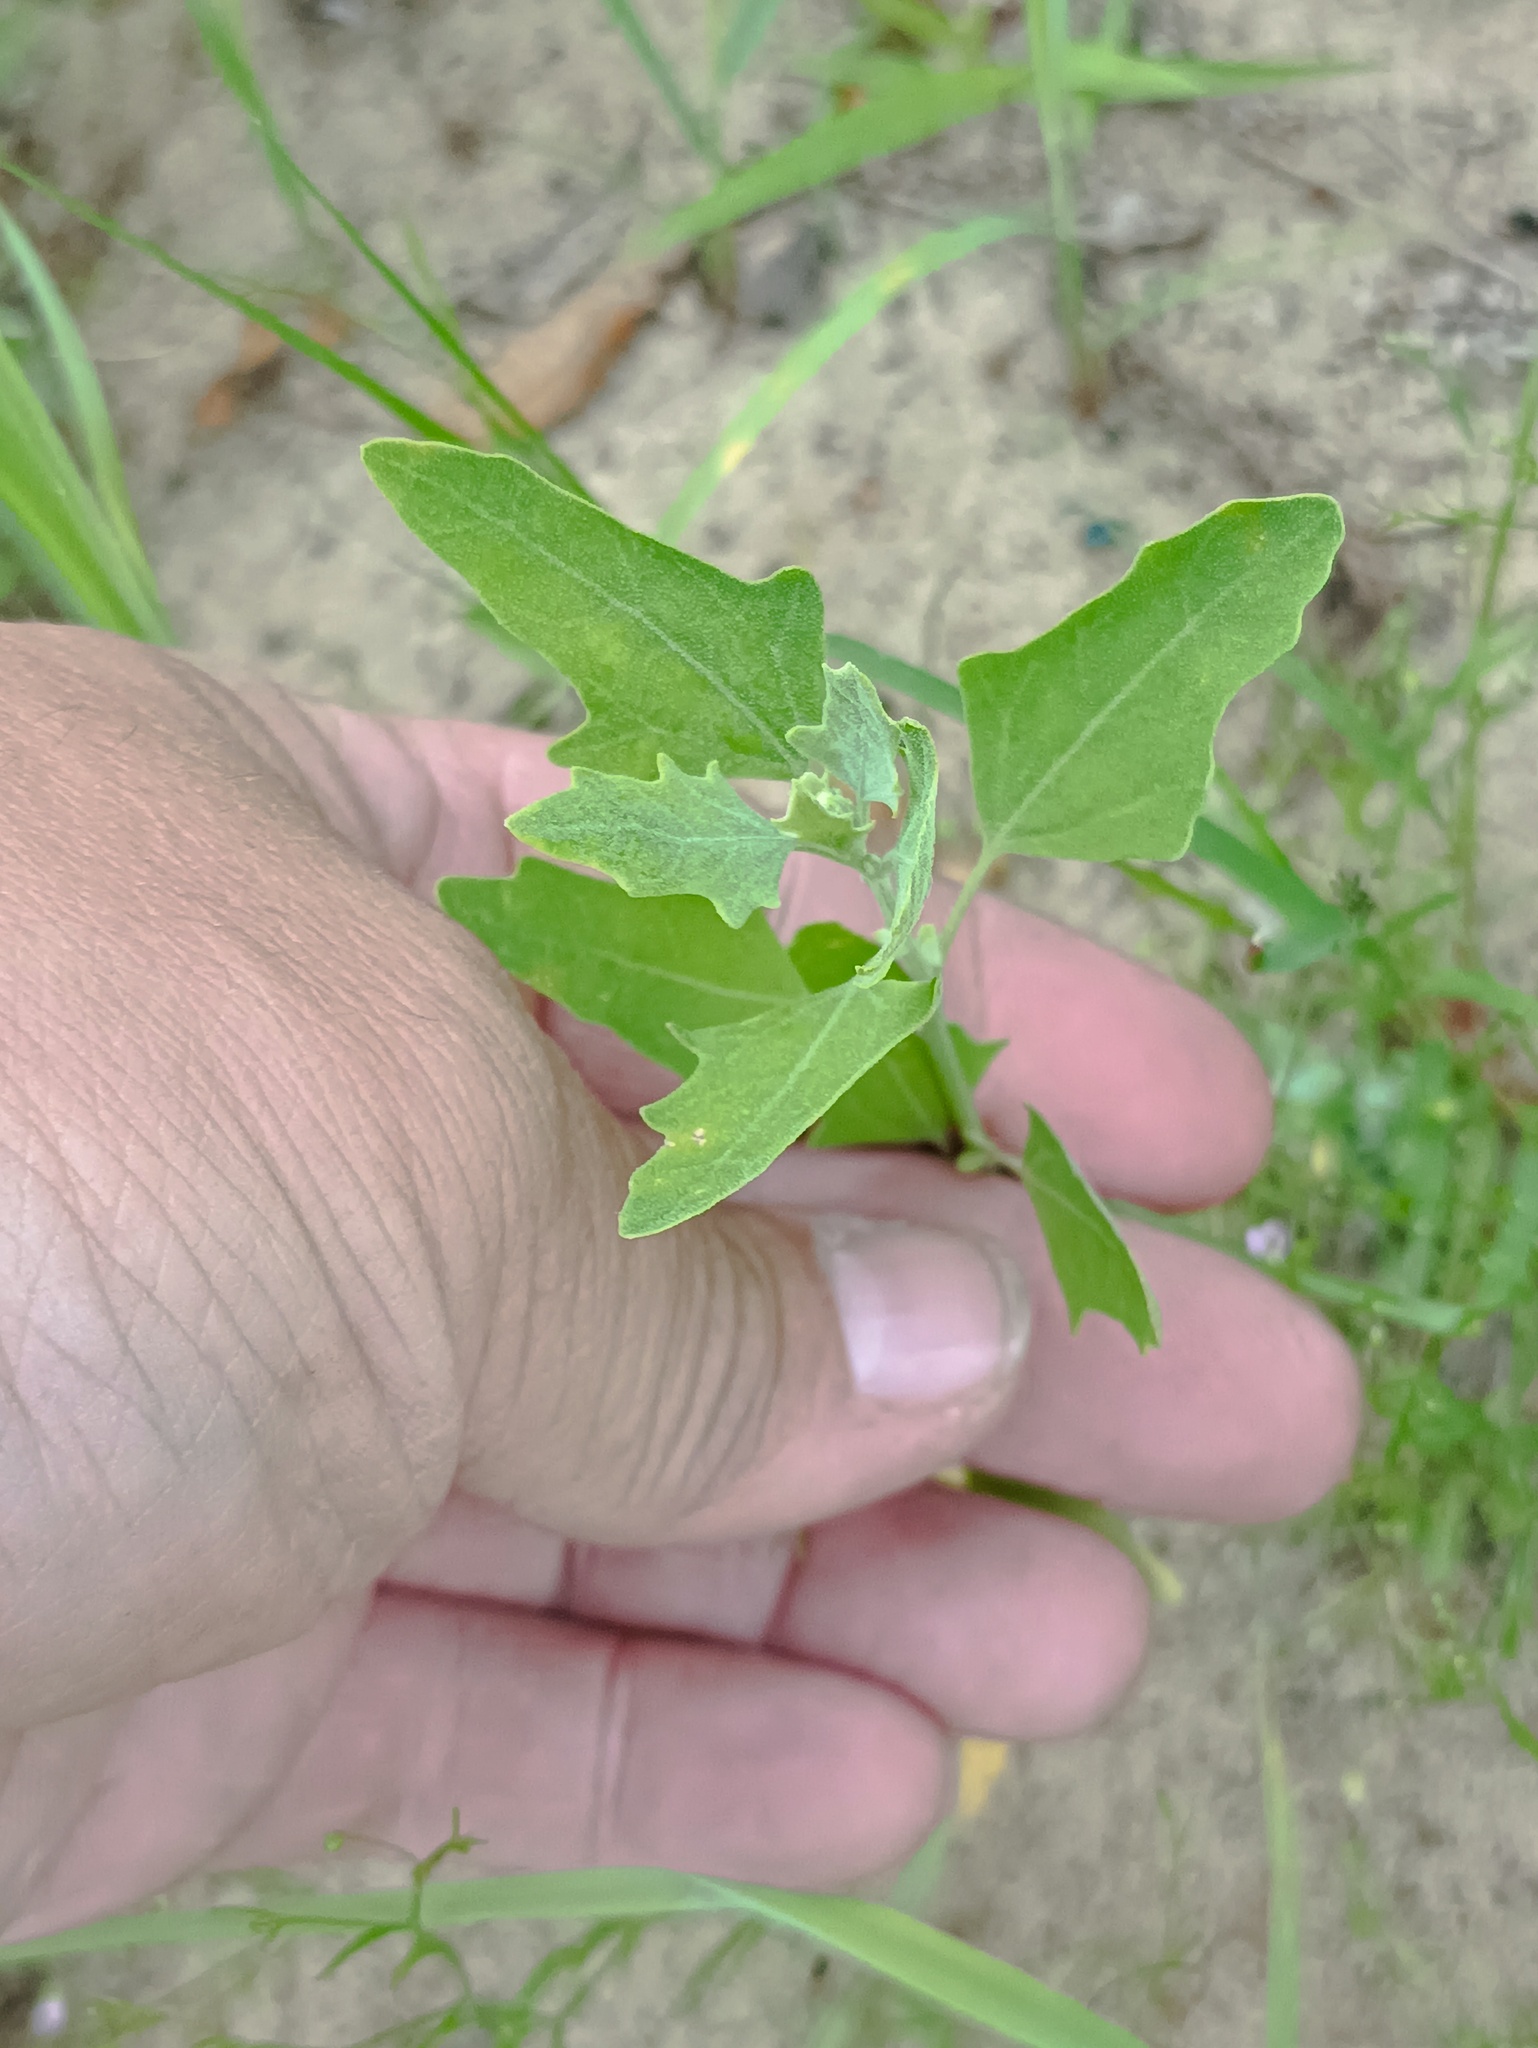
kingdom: Plantae
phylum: Tracheophyta
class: Magnoliopsida
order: Caryophyllales
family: Amaranthaceae
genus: Chenopodium
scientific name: Chenopodium album
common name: Fat-hen
